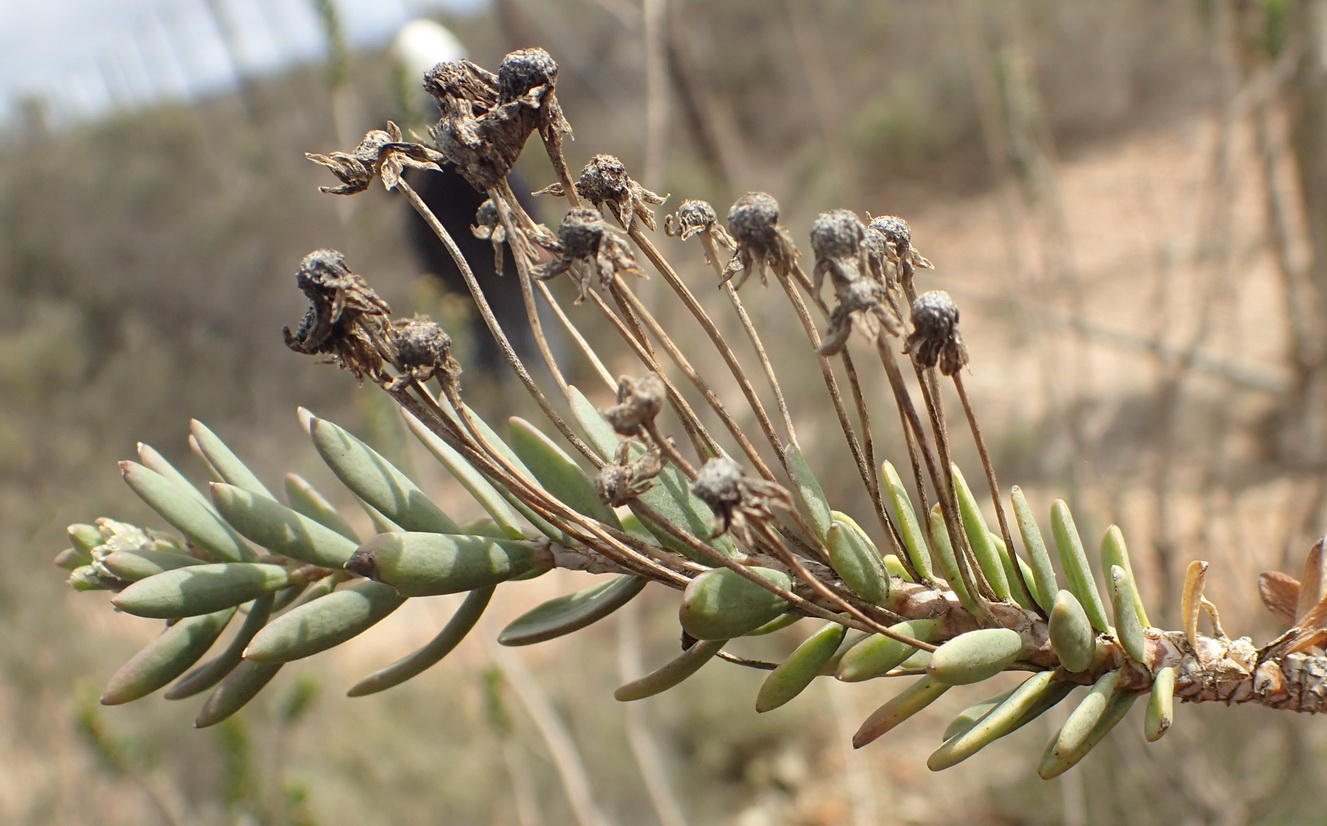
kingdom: Plantae
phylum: Tracheophyta
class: Magnoliopsida
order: Asterales
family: Asteraceae
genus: Euryops
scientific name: Euryops lateriflorus
